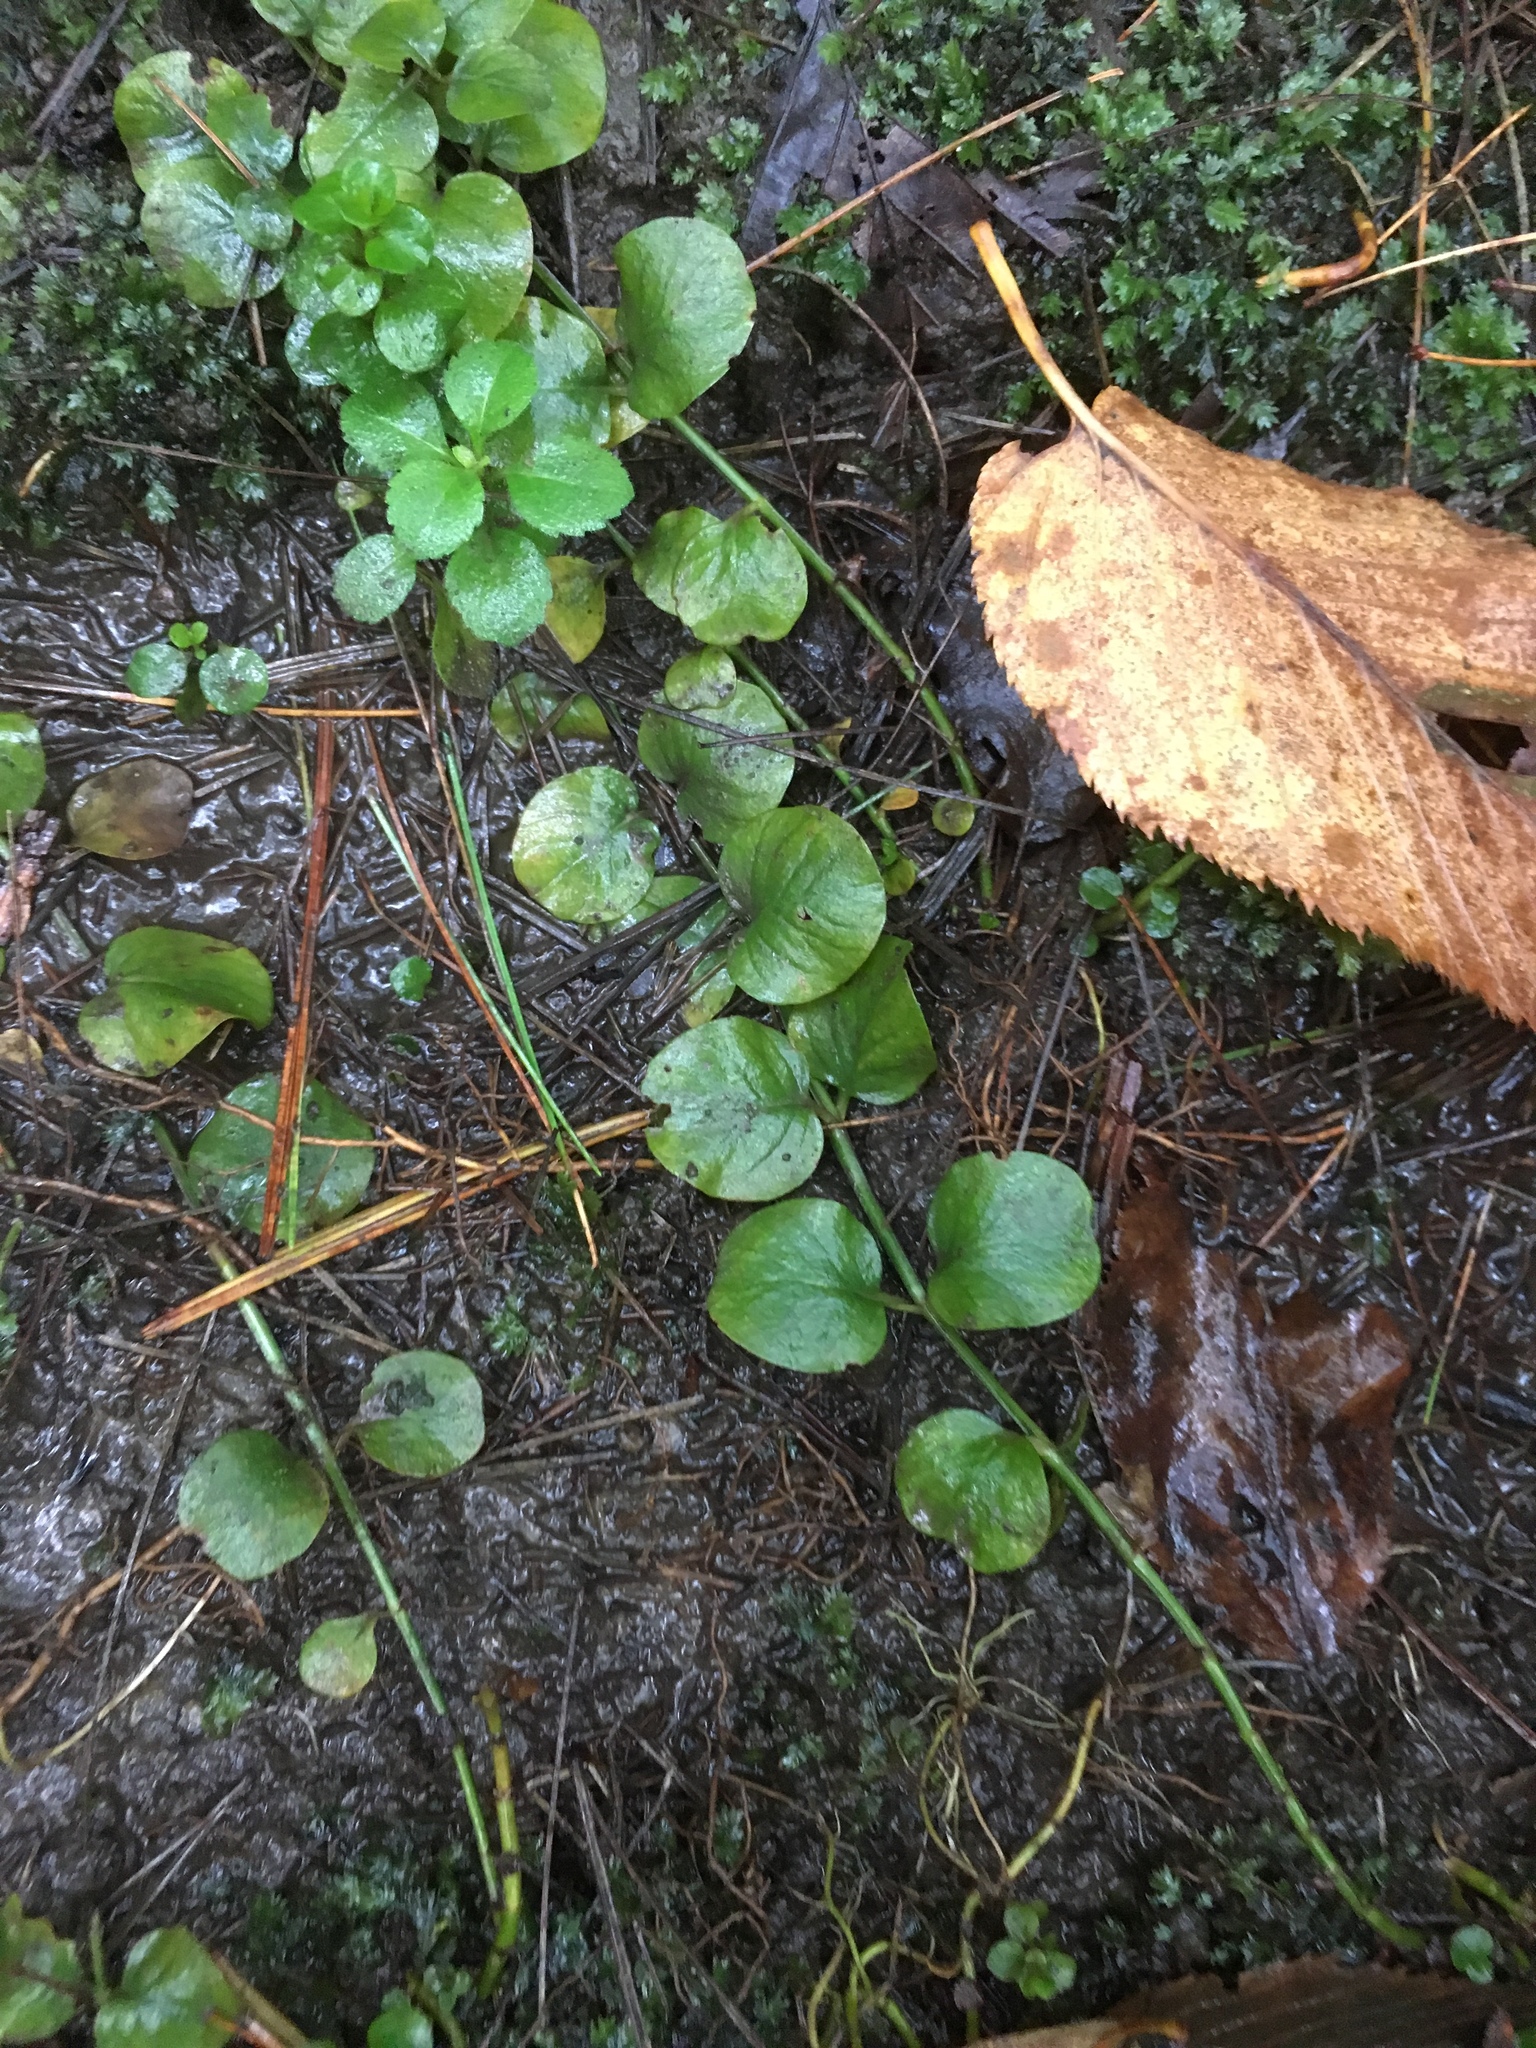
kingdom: Plantae
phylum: Tracheophyta
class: Magnoliopsida
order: Ericales
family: Primulaceae
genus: Lysimachia
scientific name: Lysimachia nummularia
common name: Moneywort
